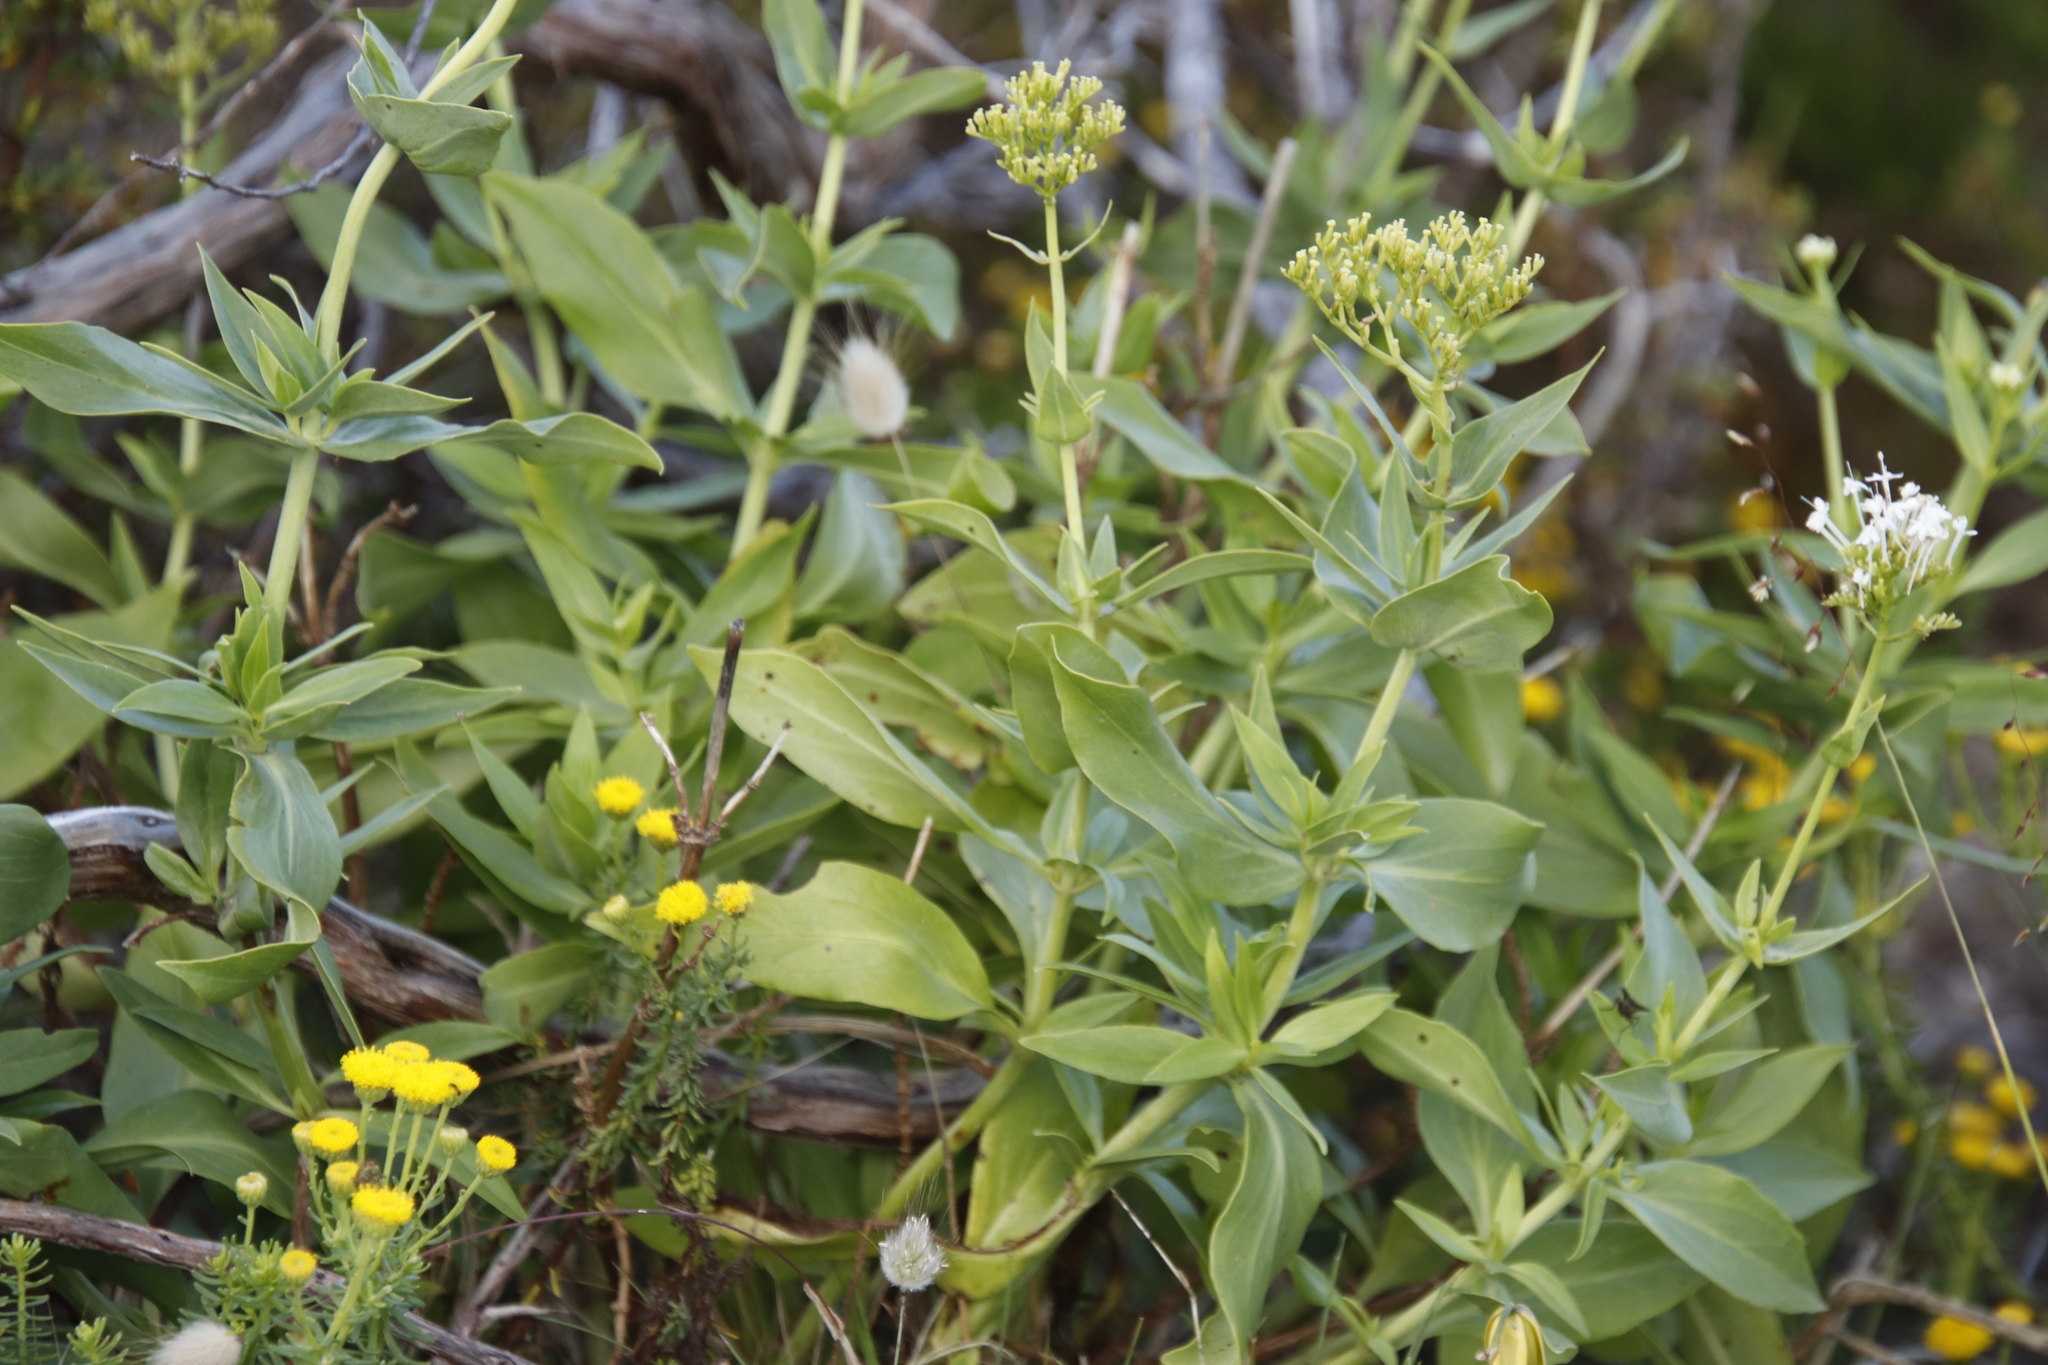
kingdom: Plantae
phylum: Tracheophyta
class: Magnoliopsida
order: Dipsacales
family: Caprifoliaceae
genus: Centranthus
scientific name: Centranthus ruber
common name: Red valerian
